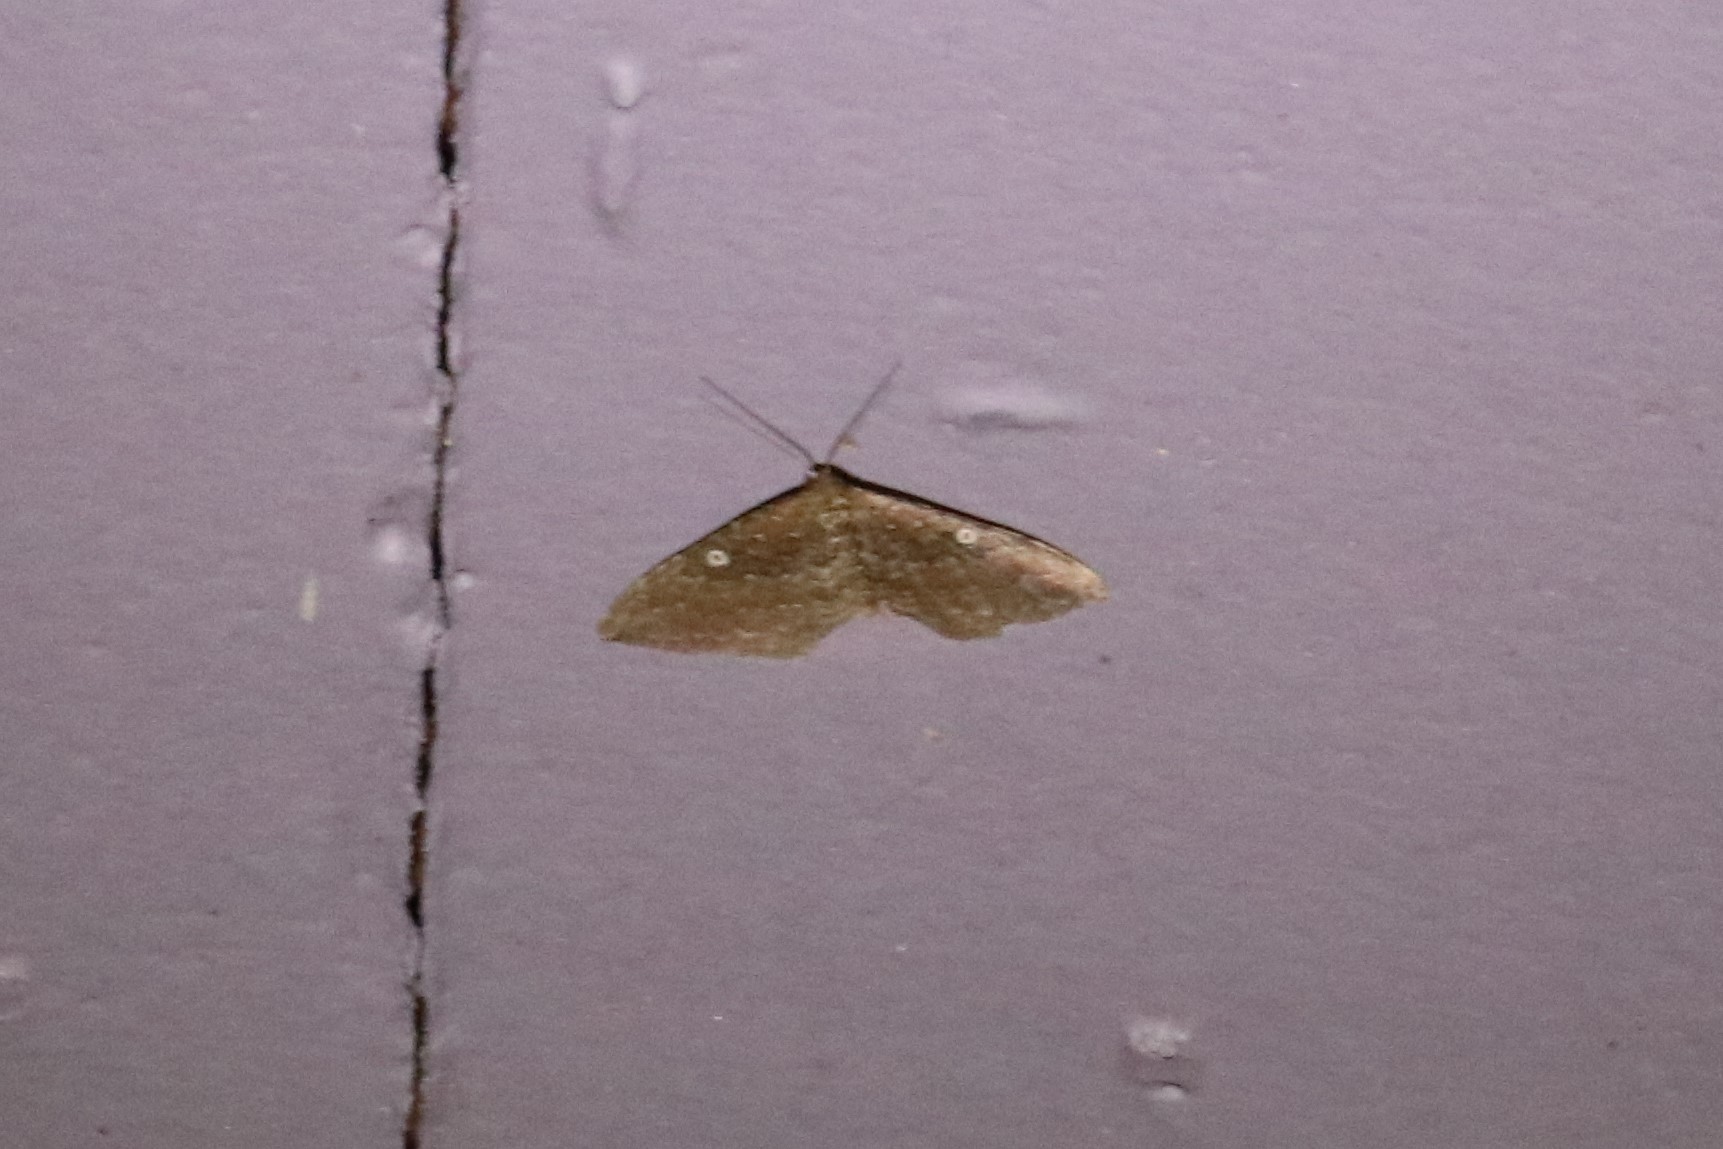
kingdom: Animalia
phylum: Arthropoda
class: Insecta
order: Lepidoptera
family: Geometridae
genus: Orthonama
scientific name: Orthonama obstipata
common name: The gem
